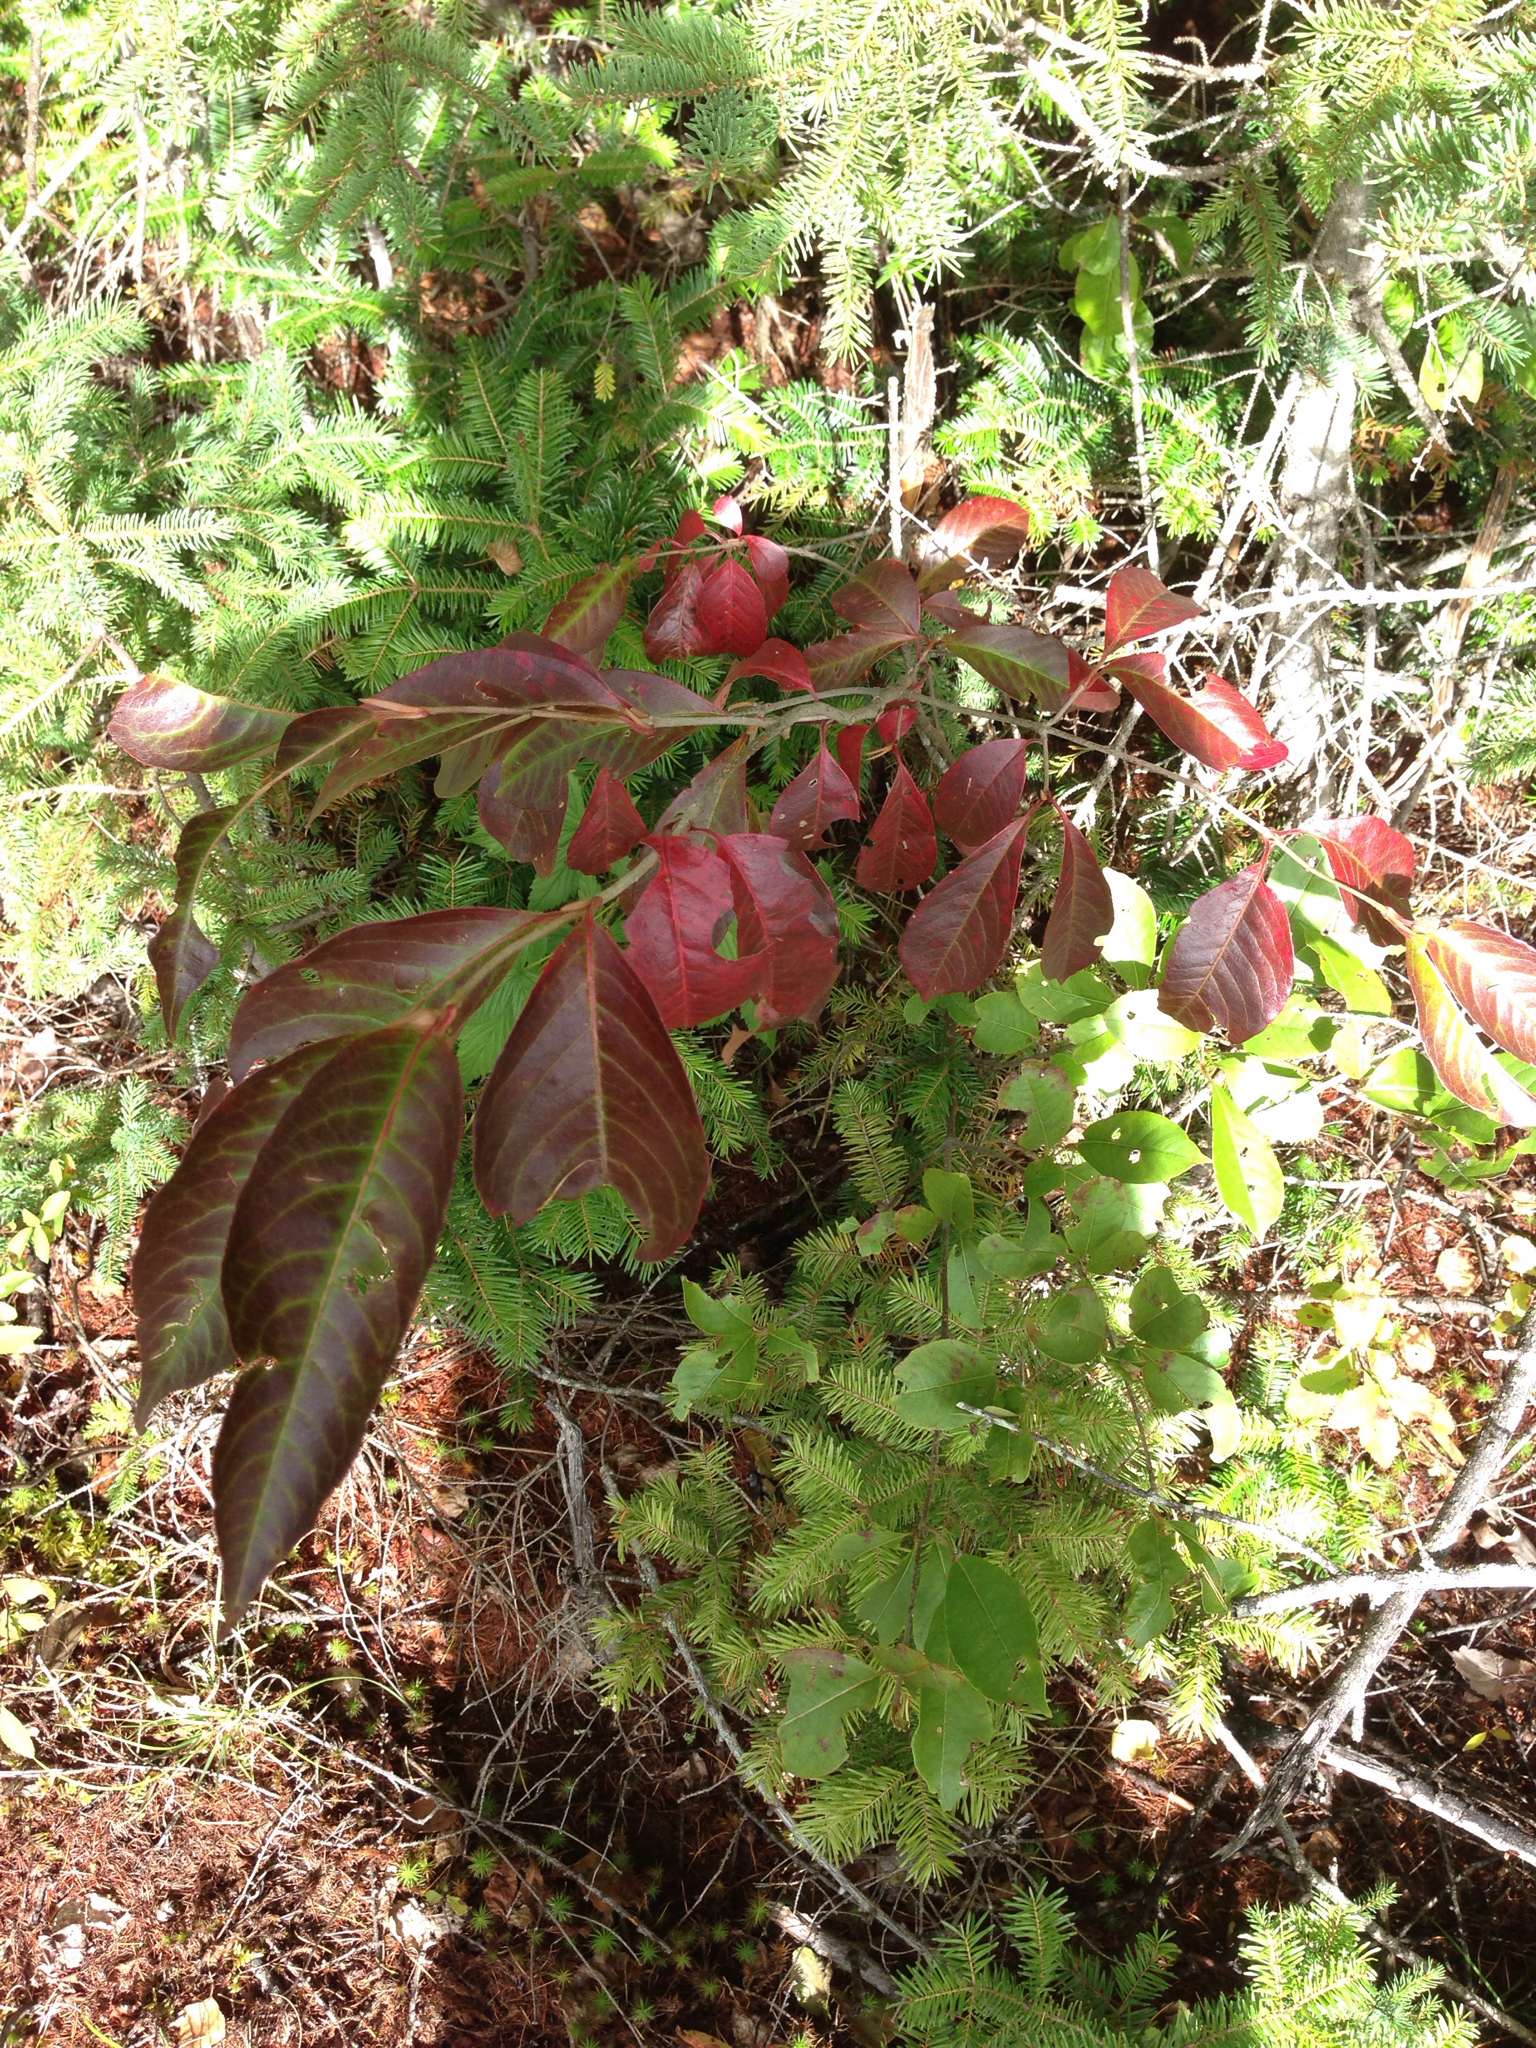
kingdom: Plantae
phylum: Tracheophyta
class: Magnoliopsida
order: Dipsacales
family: Viburnaceae
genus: Viburnum
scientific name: Viburnum cassinoides
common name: Swamp haw
